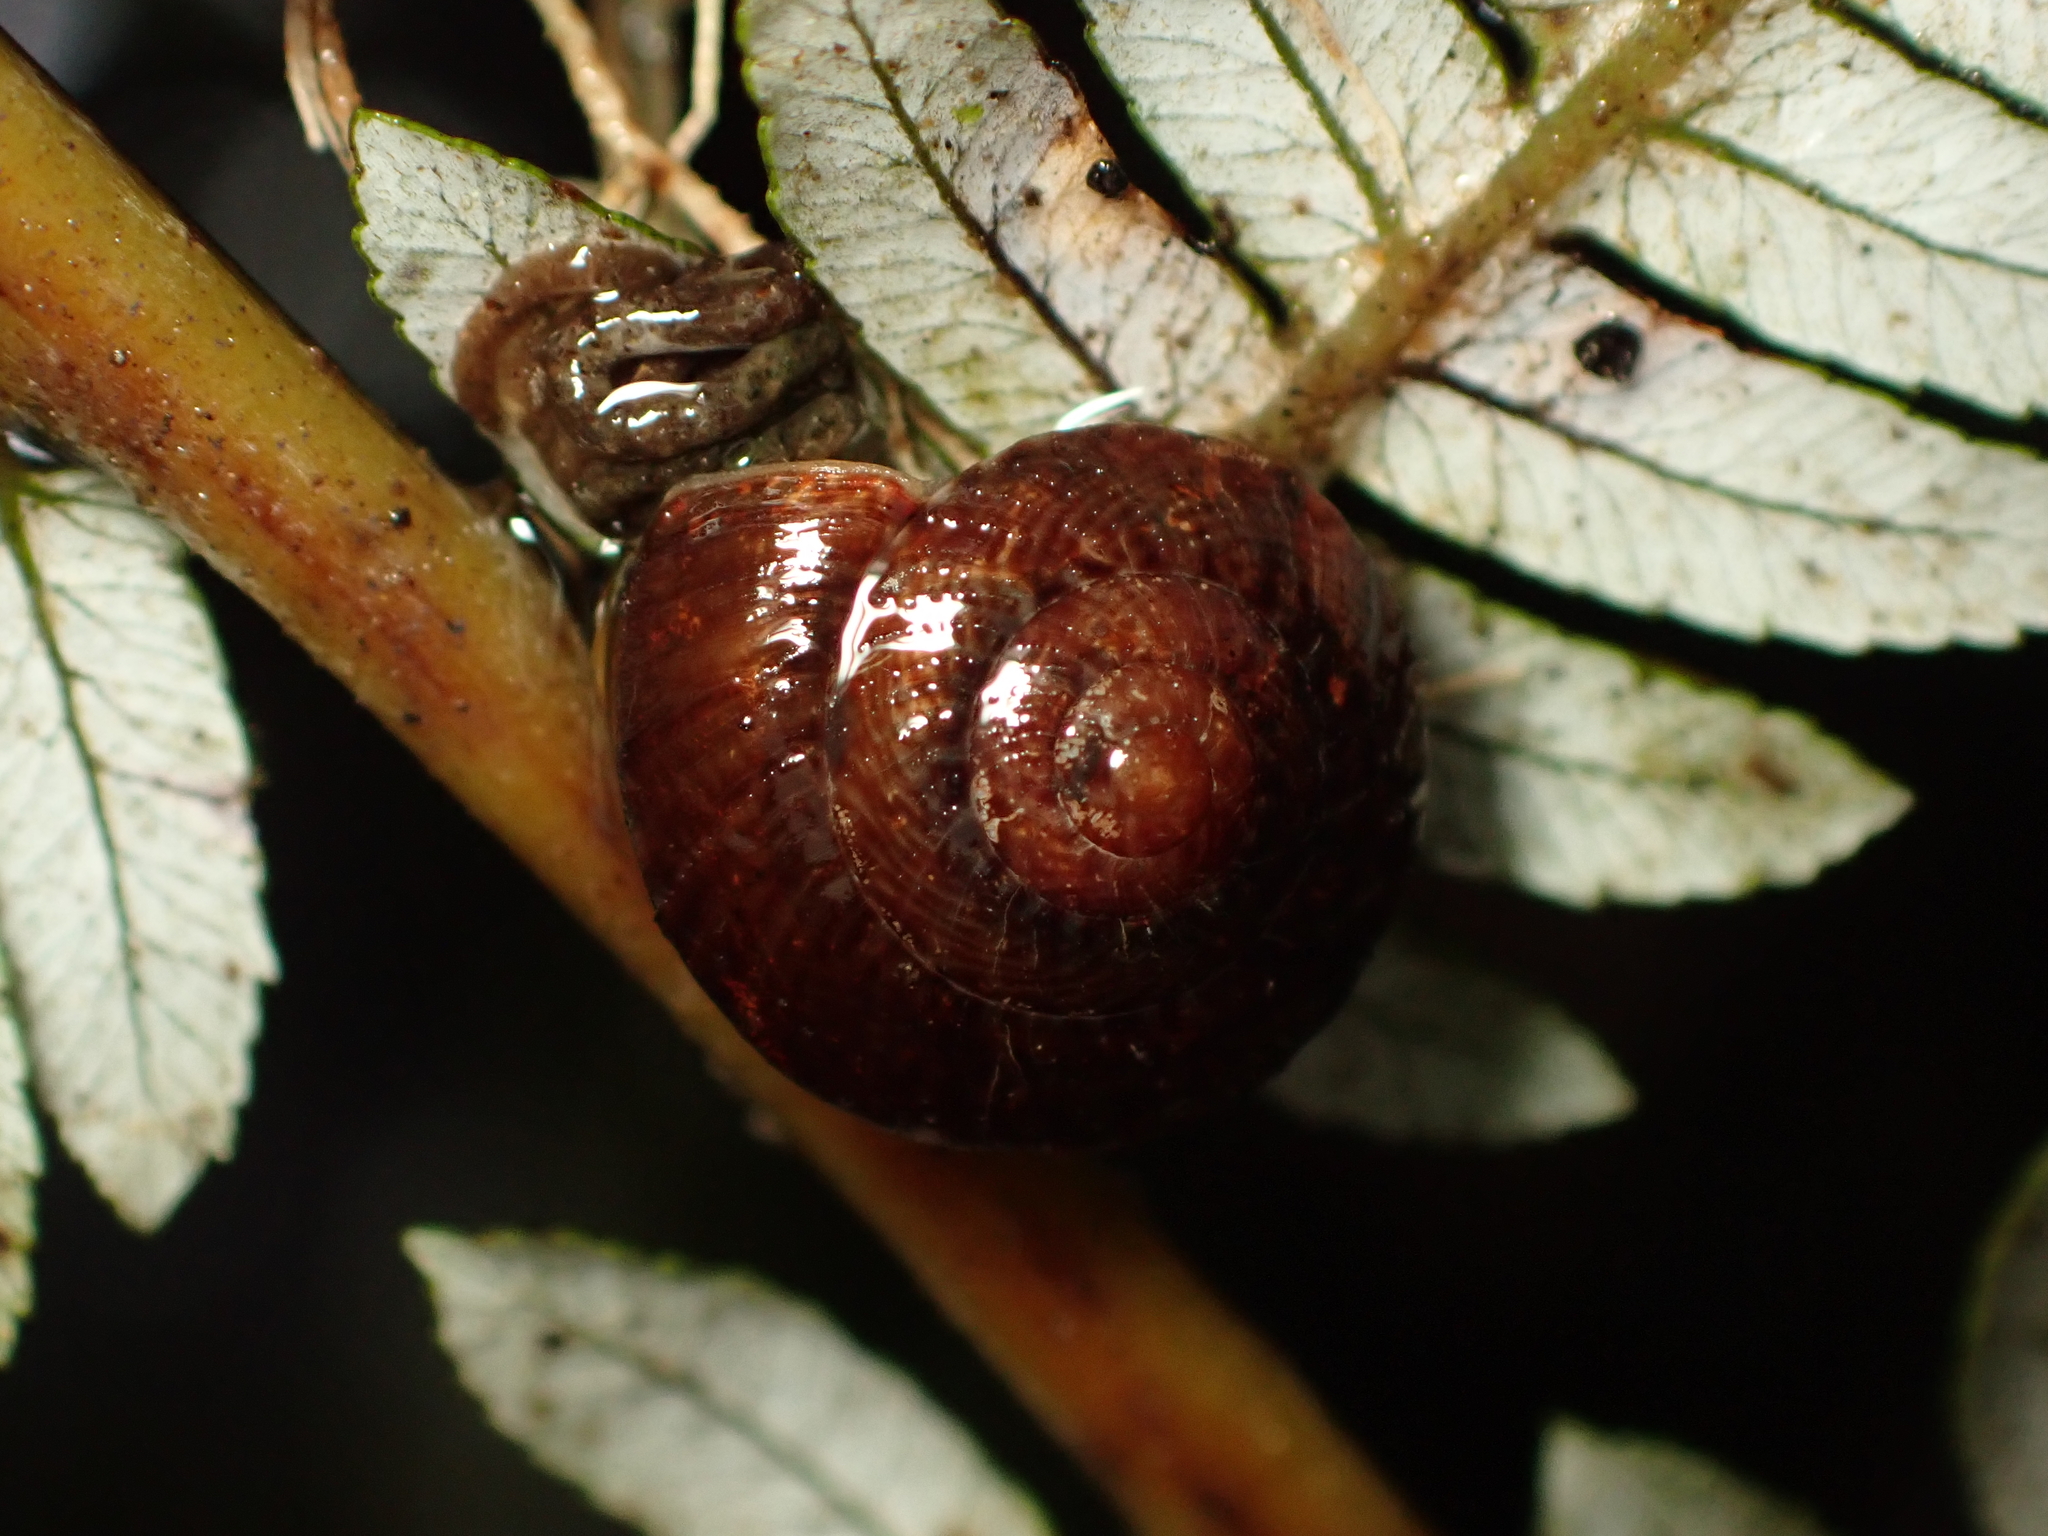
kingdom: Animalia
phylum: Mollusca
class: Gastropoda
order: Stylommatophora
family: Charopidae
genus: Thalassohelix
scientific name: Thalassohelix zelandiae
